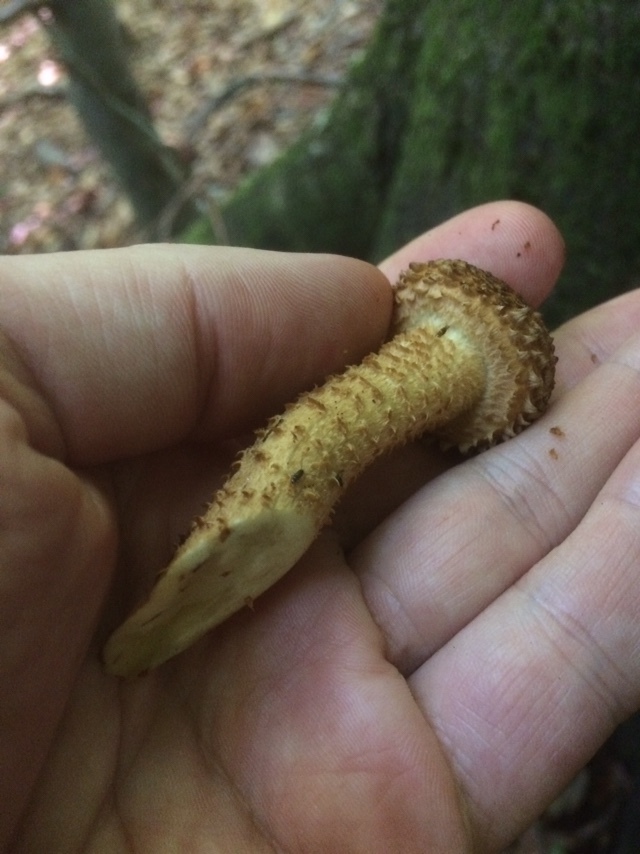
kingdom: Fungi
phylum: Basidiomycota
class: Agaricomycetes
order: Agaricales
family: Strophariaceae
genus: Pholiota
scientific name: Pholiota squarrosa
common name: Shaggy pholiota
